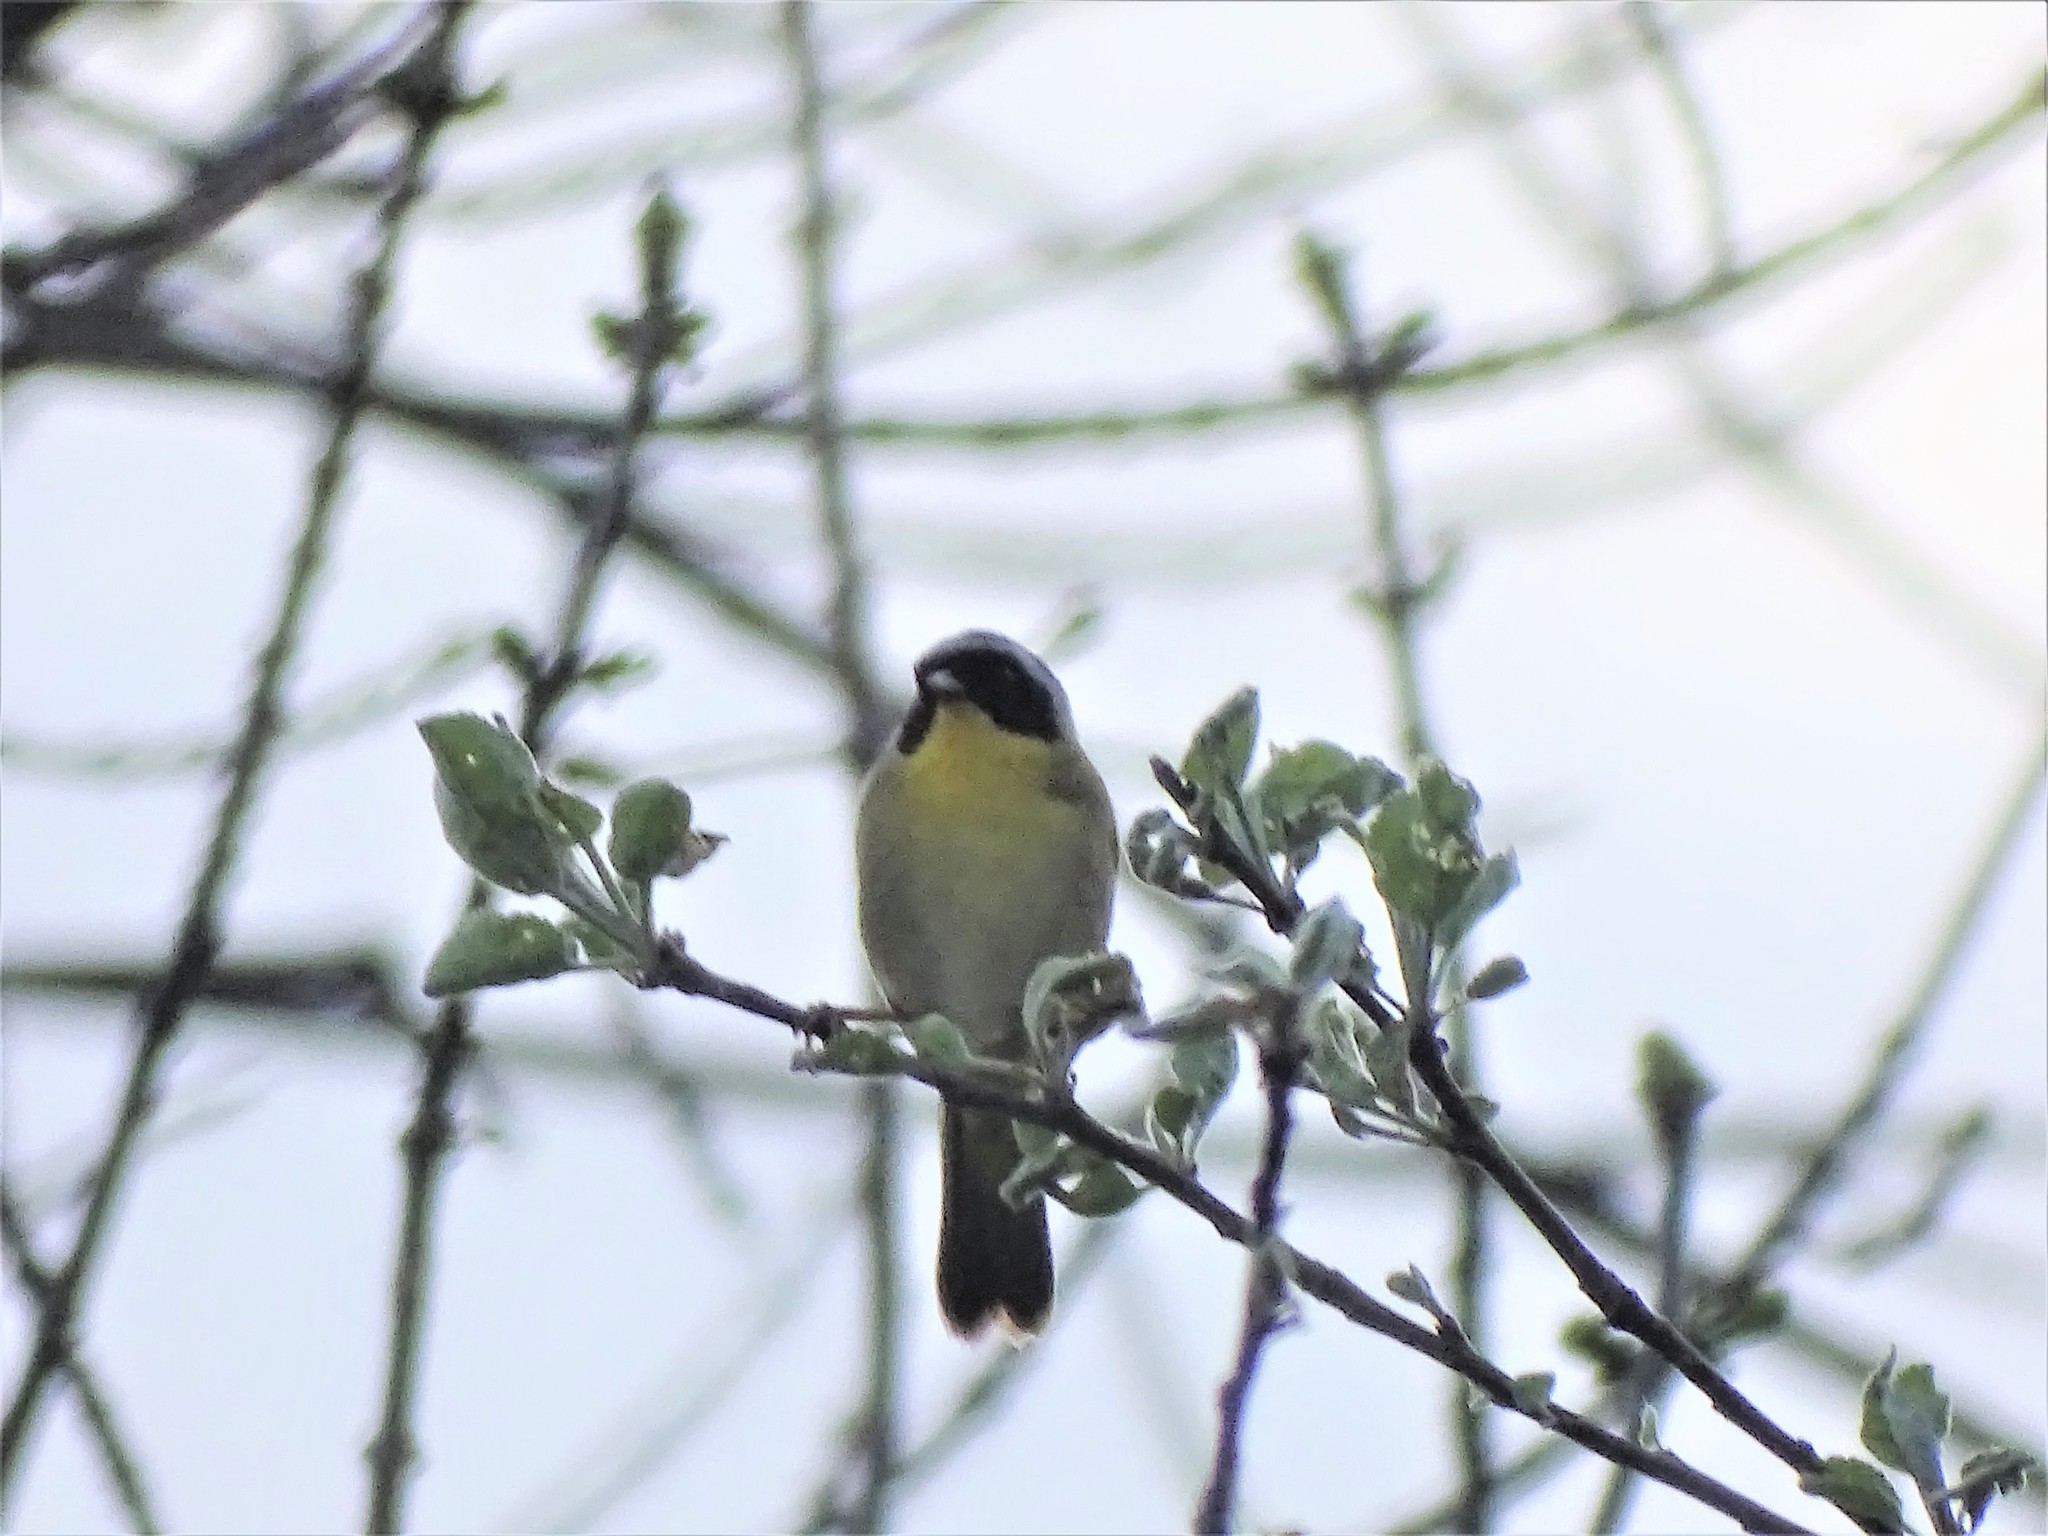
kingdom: Animalia
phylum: Chordata
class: Aves
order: Passeriformes
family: Parulidae
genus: Geothlypis
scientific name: Geothlypis trichas
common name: Common yellowthroat
